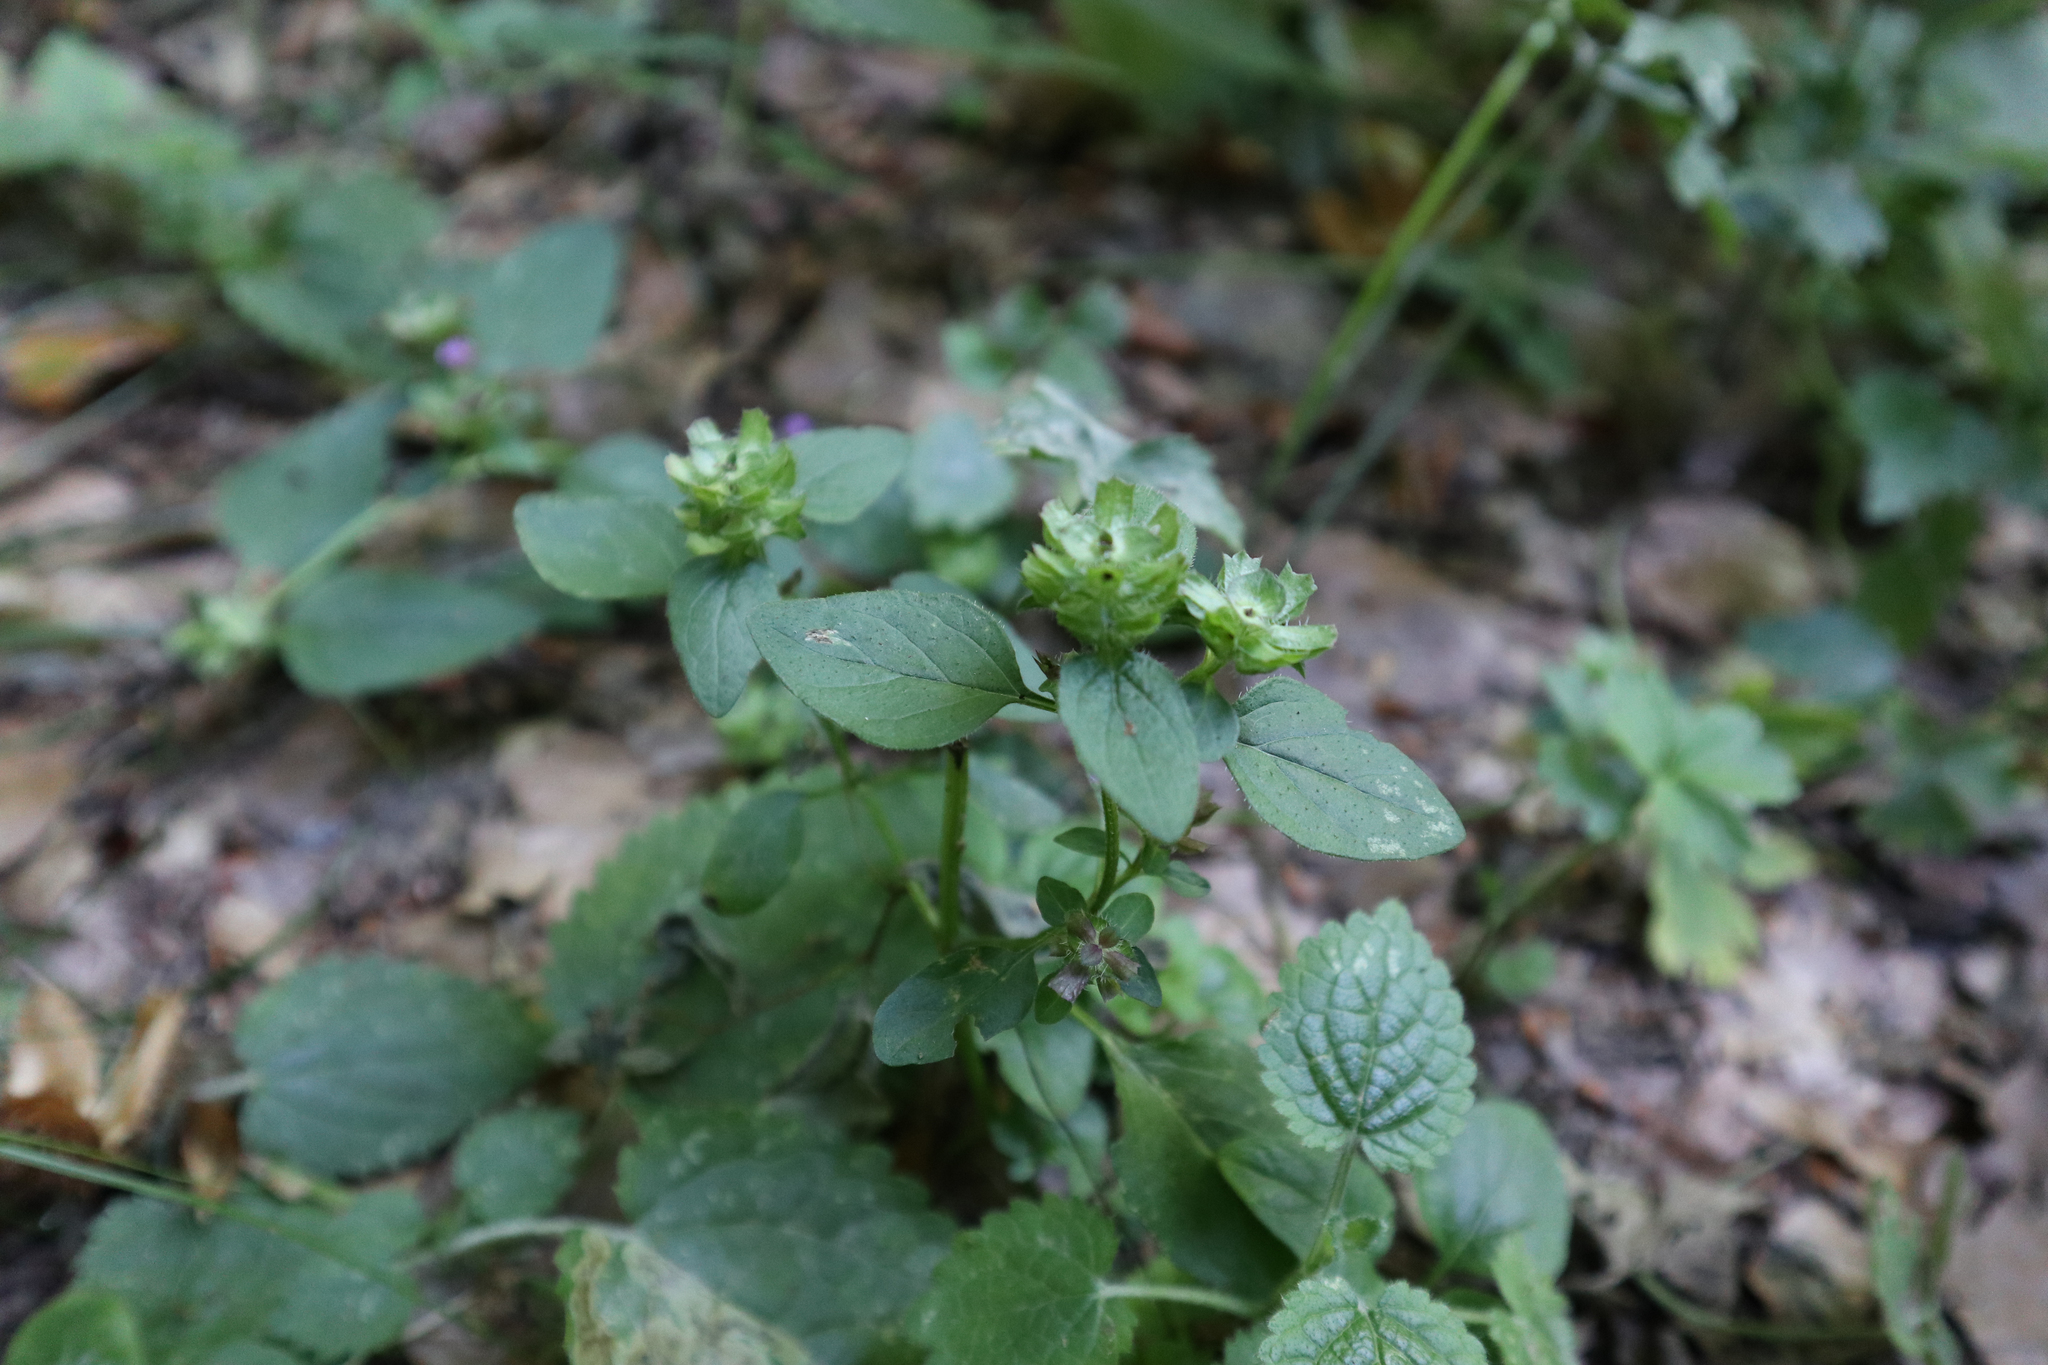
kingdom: Plantae
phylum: Tracheophyta
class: Magnoliopsida
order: Lamiales
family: Lamiaceae
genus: Prunella
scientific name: Prunella vulgaris
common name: Heal-all
